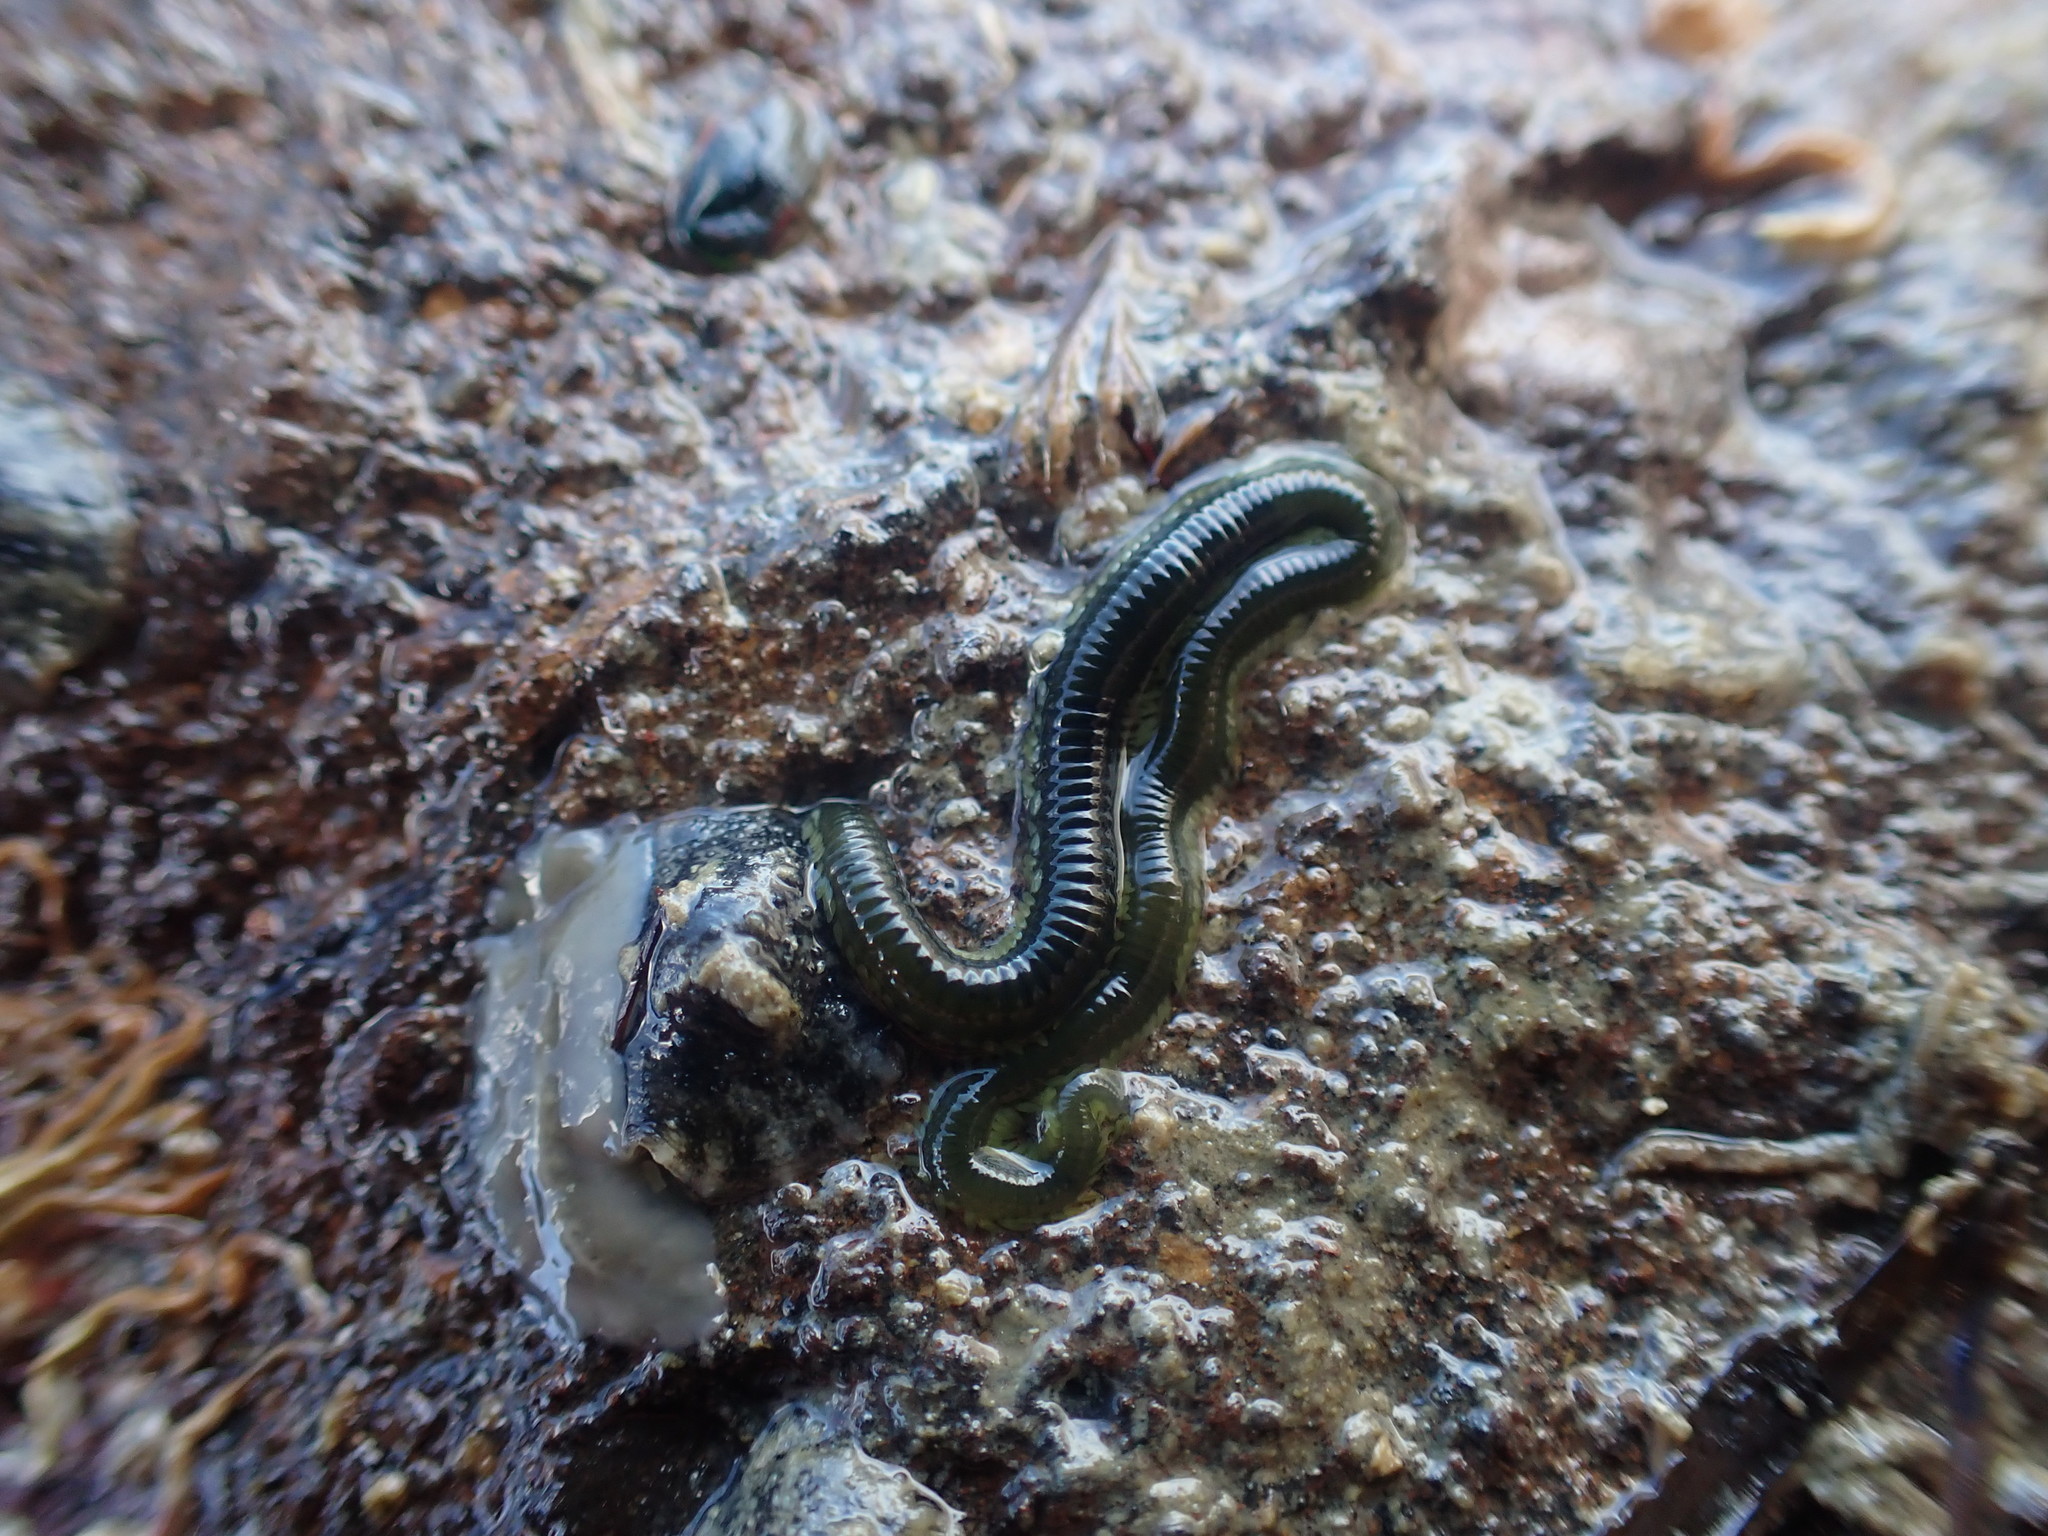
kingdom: Animalia
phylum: Annelida
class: Polychaeta
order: Phyllodocida
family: Phyllodocidae
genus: Eulalia
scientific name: Eulalia microphylla
